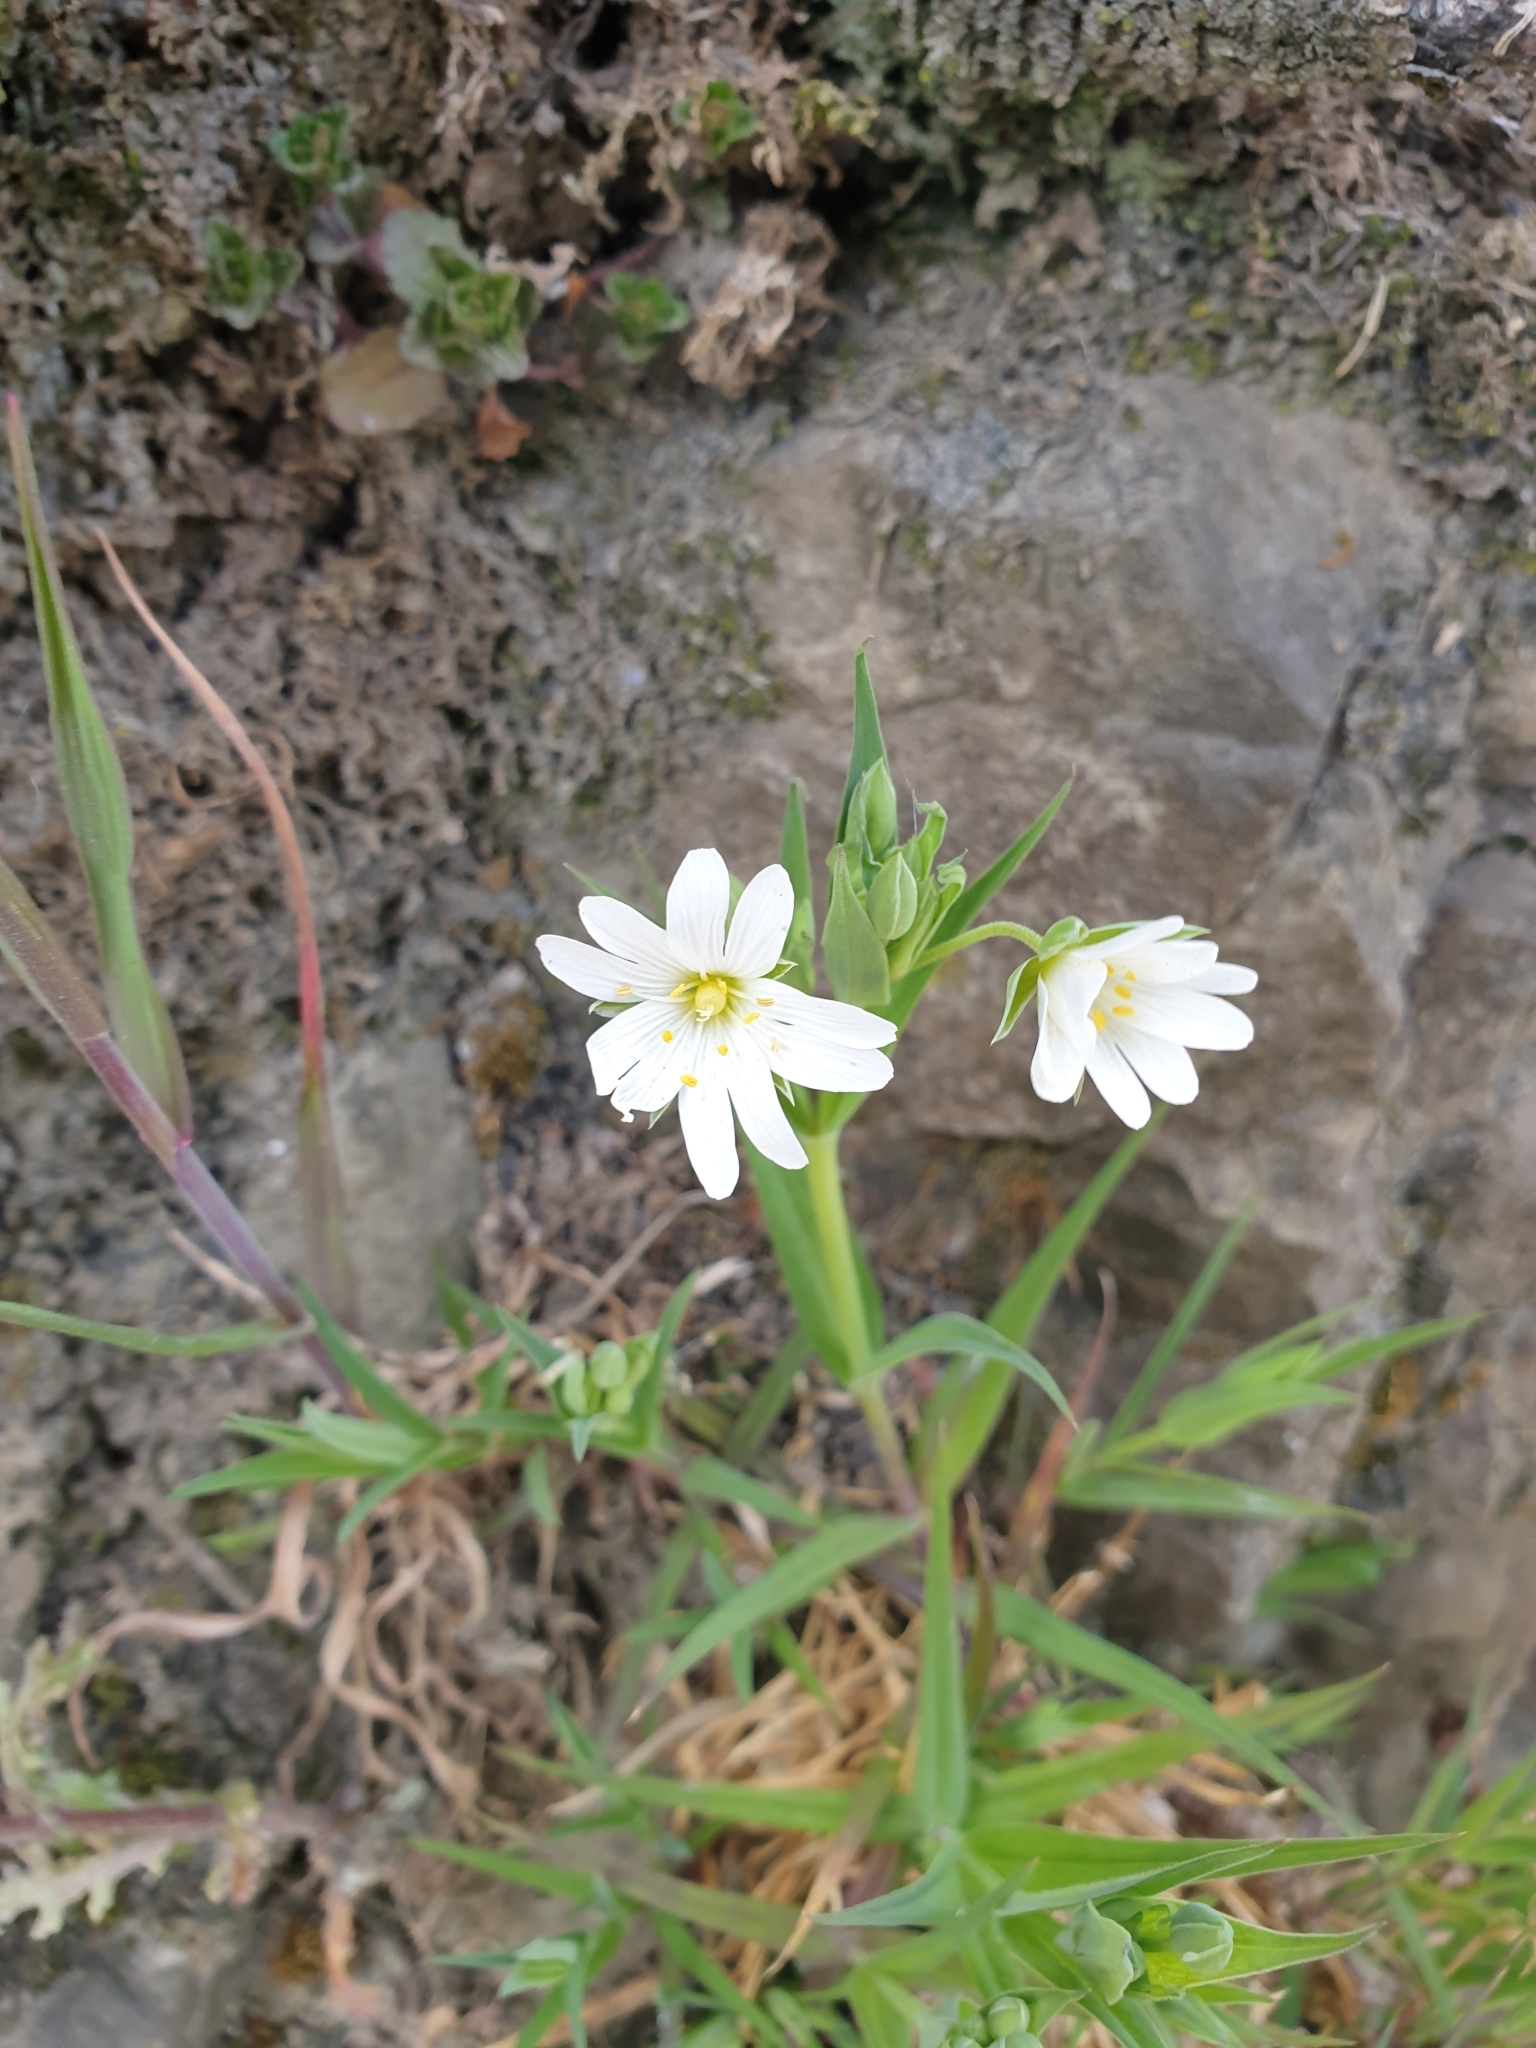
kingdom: Plantae
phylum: Tracheophyta
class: Magnoliopsida
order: Caryophyllales
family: Caryophyllaceae
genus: Rabelera
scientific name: Rabelera holostea
